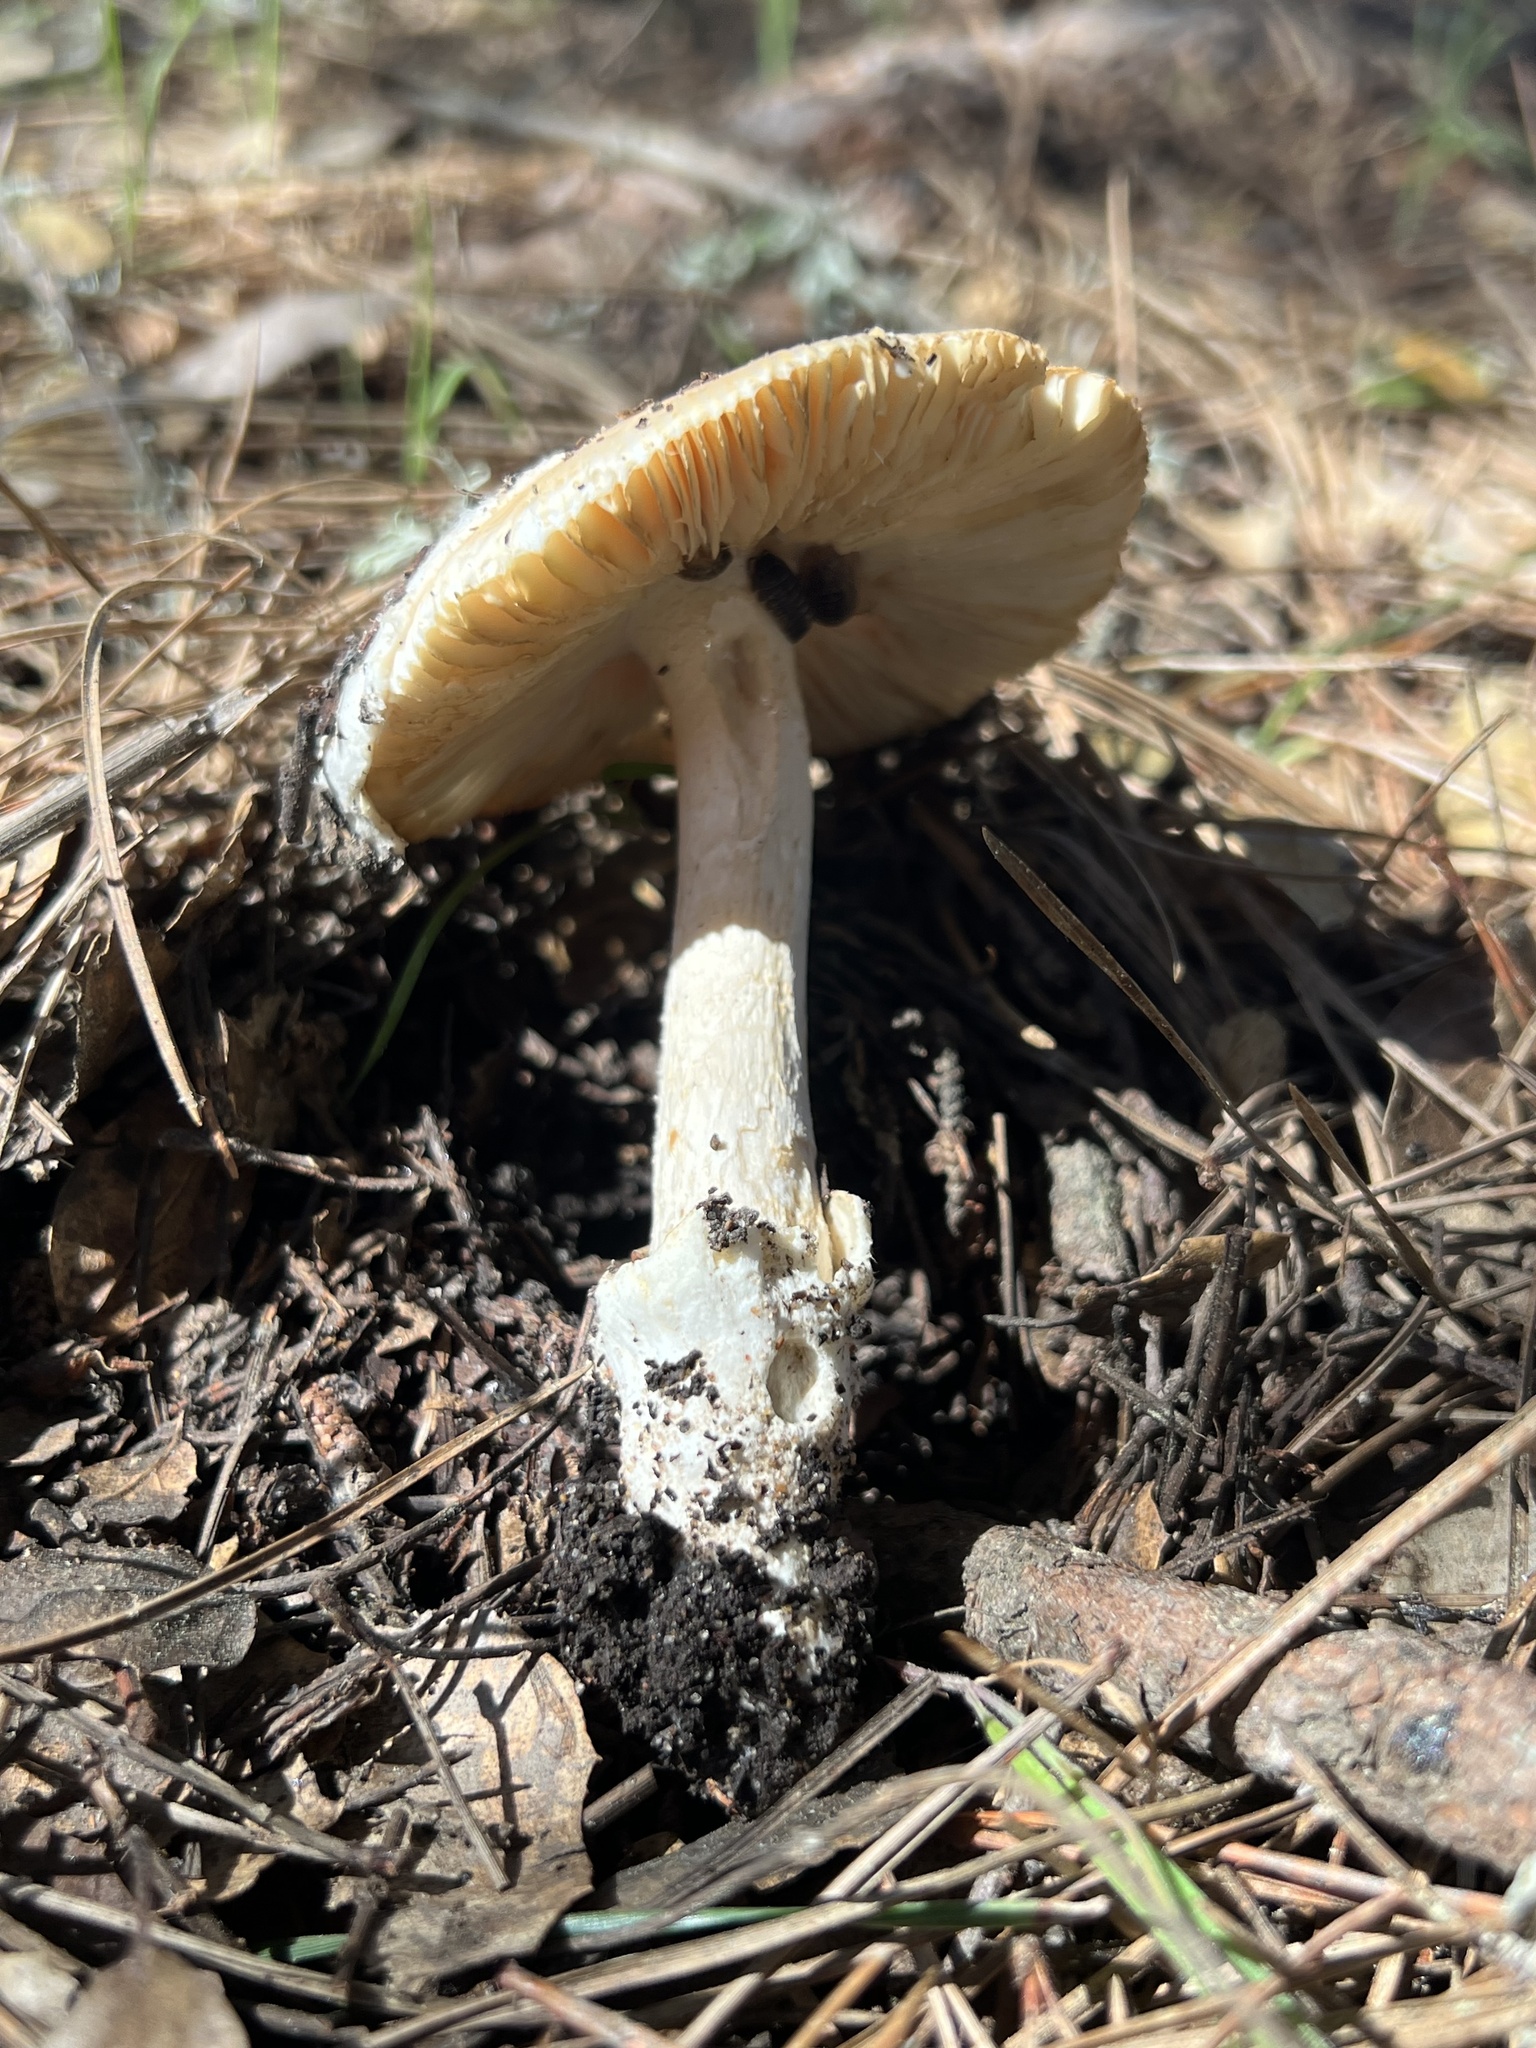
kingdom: Fungi
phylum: Basidiomycota
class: Agaricomycetes
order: Agaricales
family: Amanitaceae
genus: Amanita
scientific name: Amanita velosa
